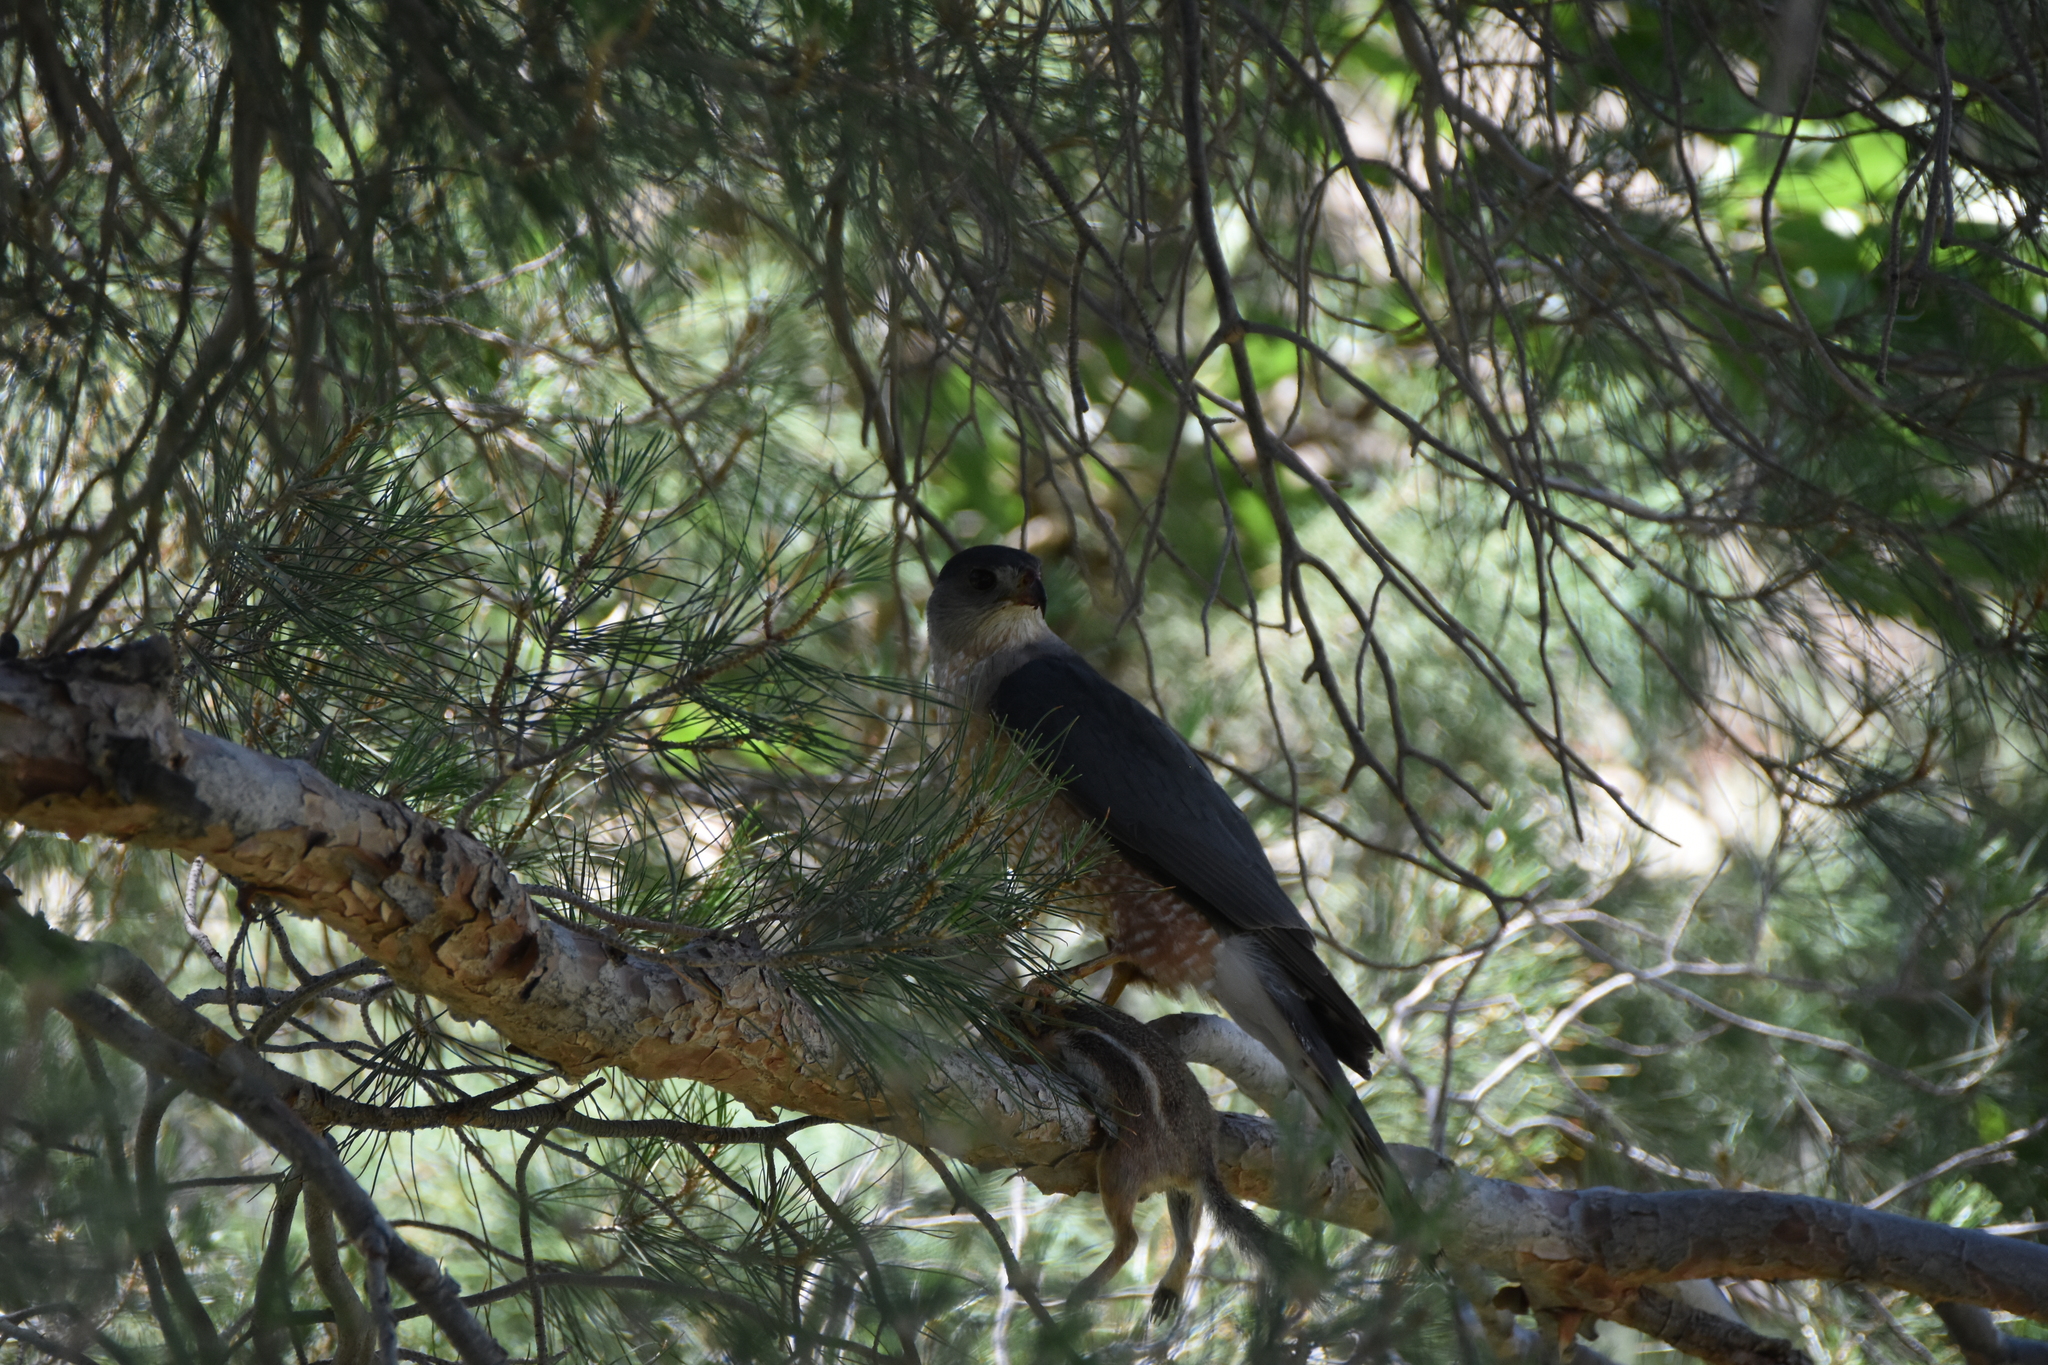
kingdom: Animalia
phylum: Chordata
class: Aves
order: Accipitriformes
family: Accipitridae
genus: Accipiter
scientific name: Accipiter cooperii
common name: Cooper's hawk
